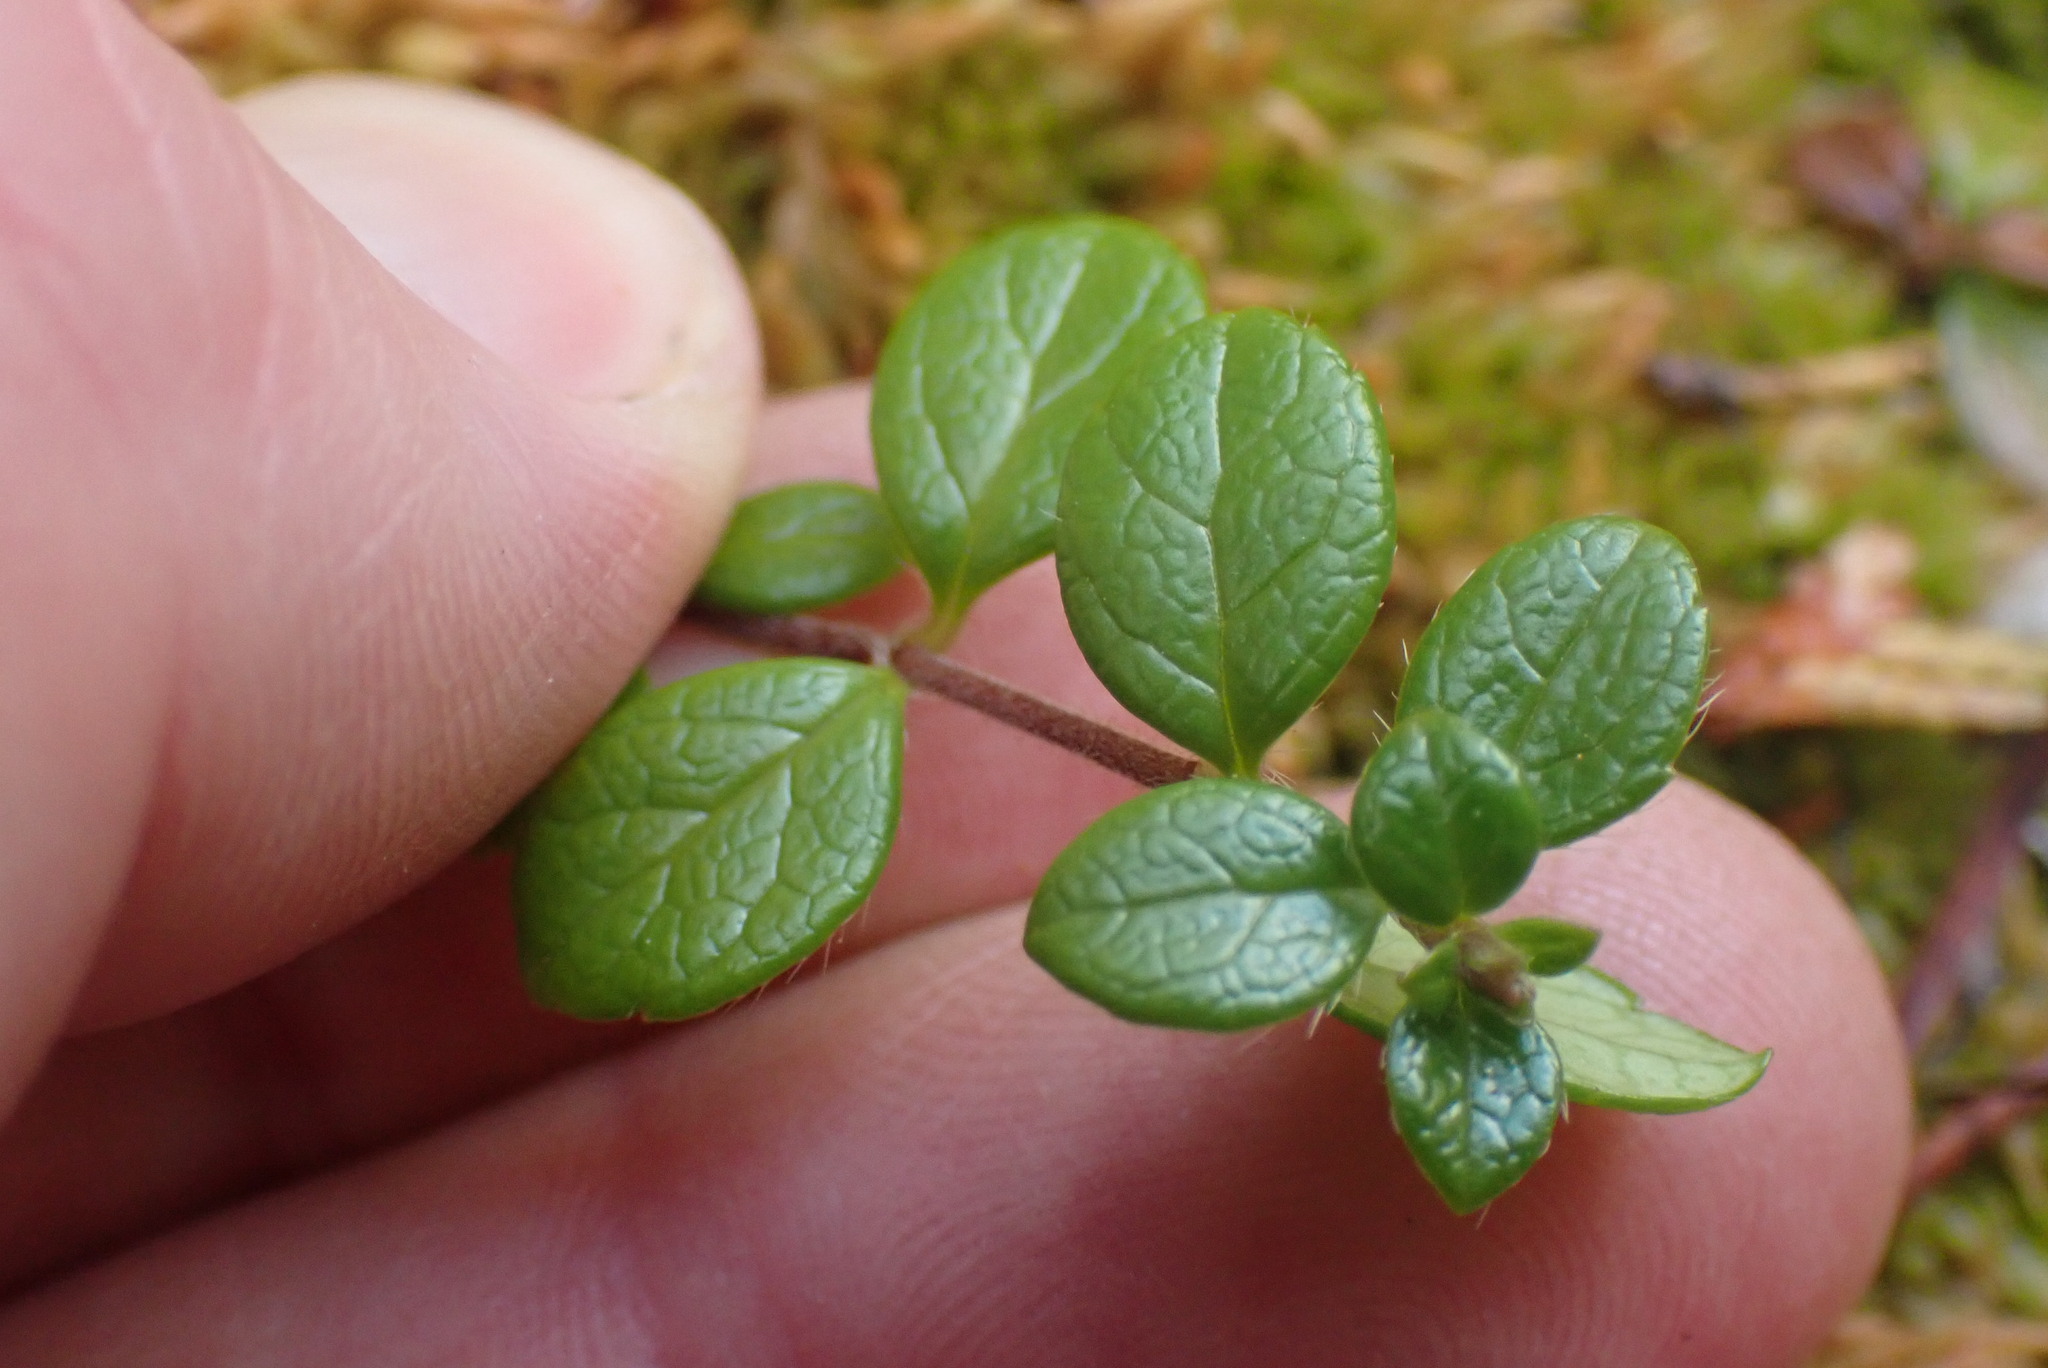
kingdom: Plantae
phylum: Tracheophyta
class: Magnoliopsida
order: Ericales
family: Ericaceae
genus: Vaccinium
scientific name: Vaccinium vitis-idaea
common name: Cowberry
